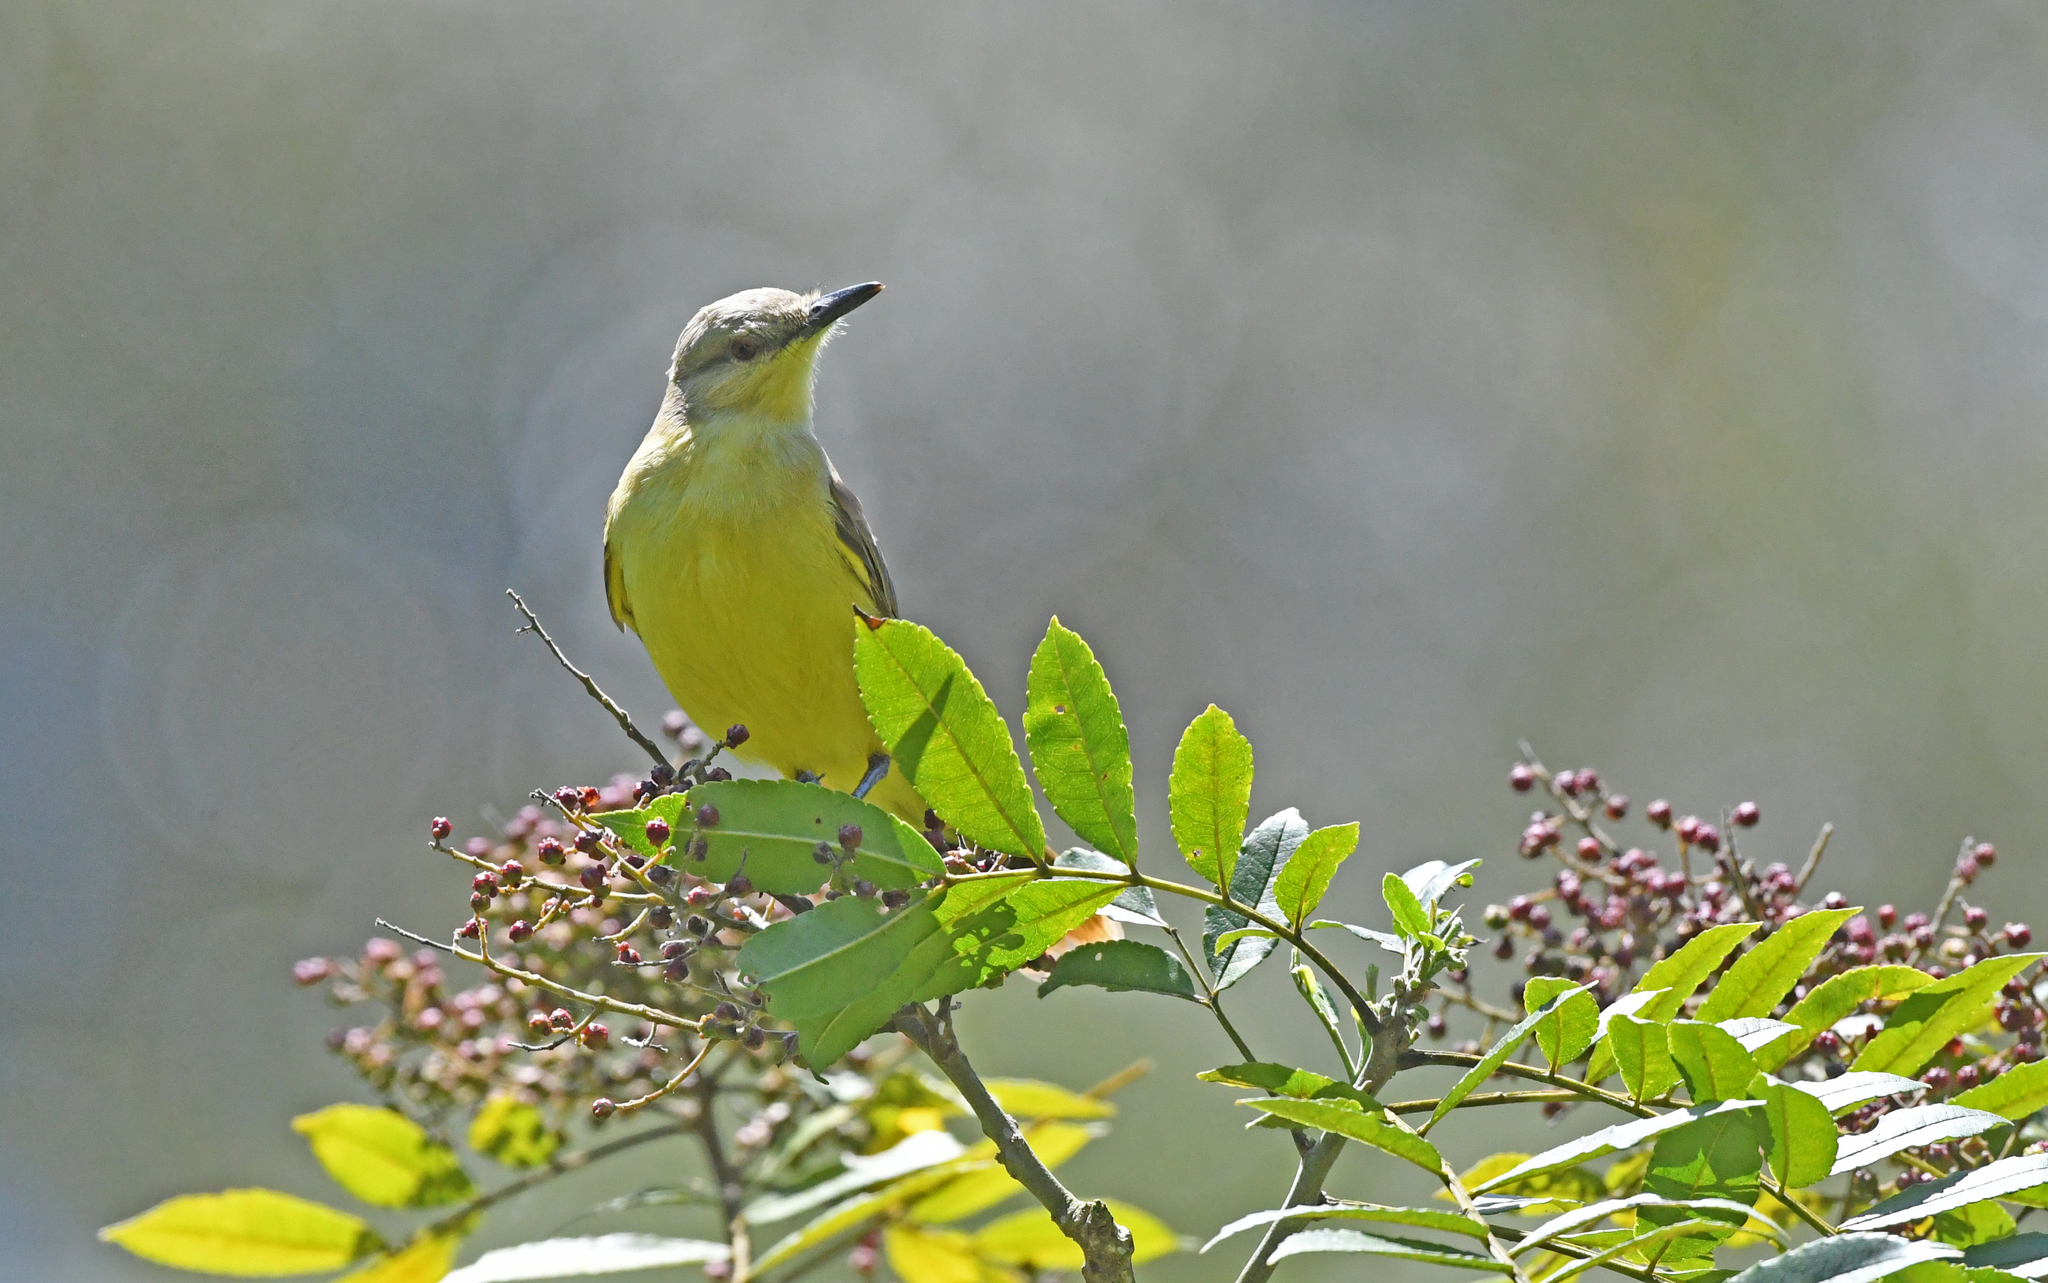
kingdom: Animalia
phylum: Chordata
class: Aves
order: Passeriformes
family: Tyrannidae
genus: Machetornis
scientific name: Machetornis rixosa
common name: Cattle tyrant
